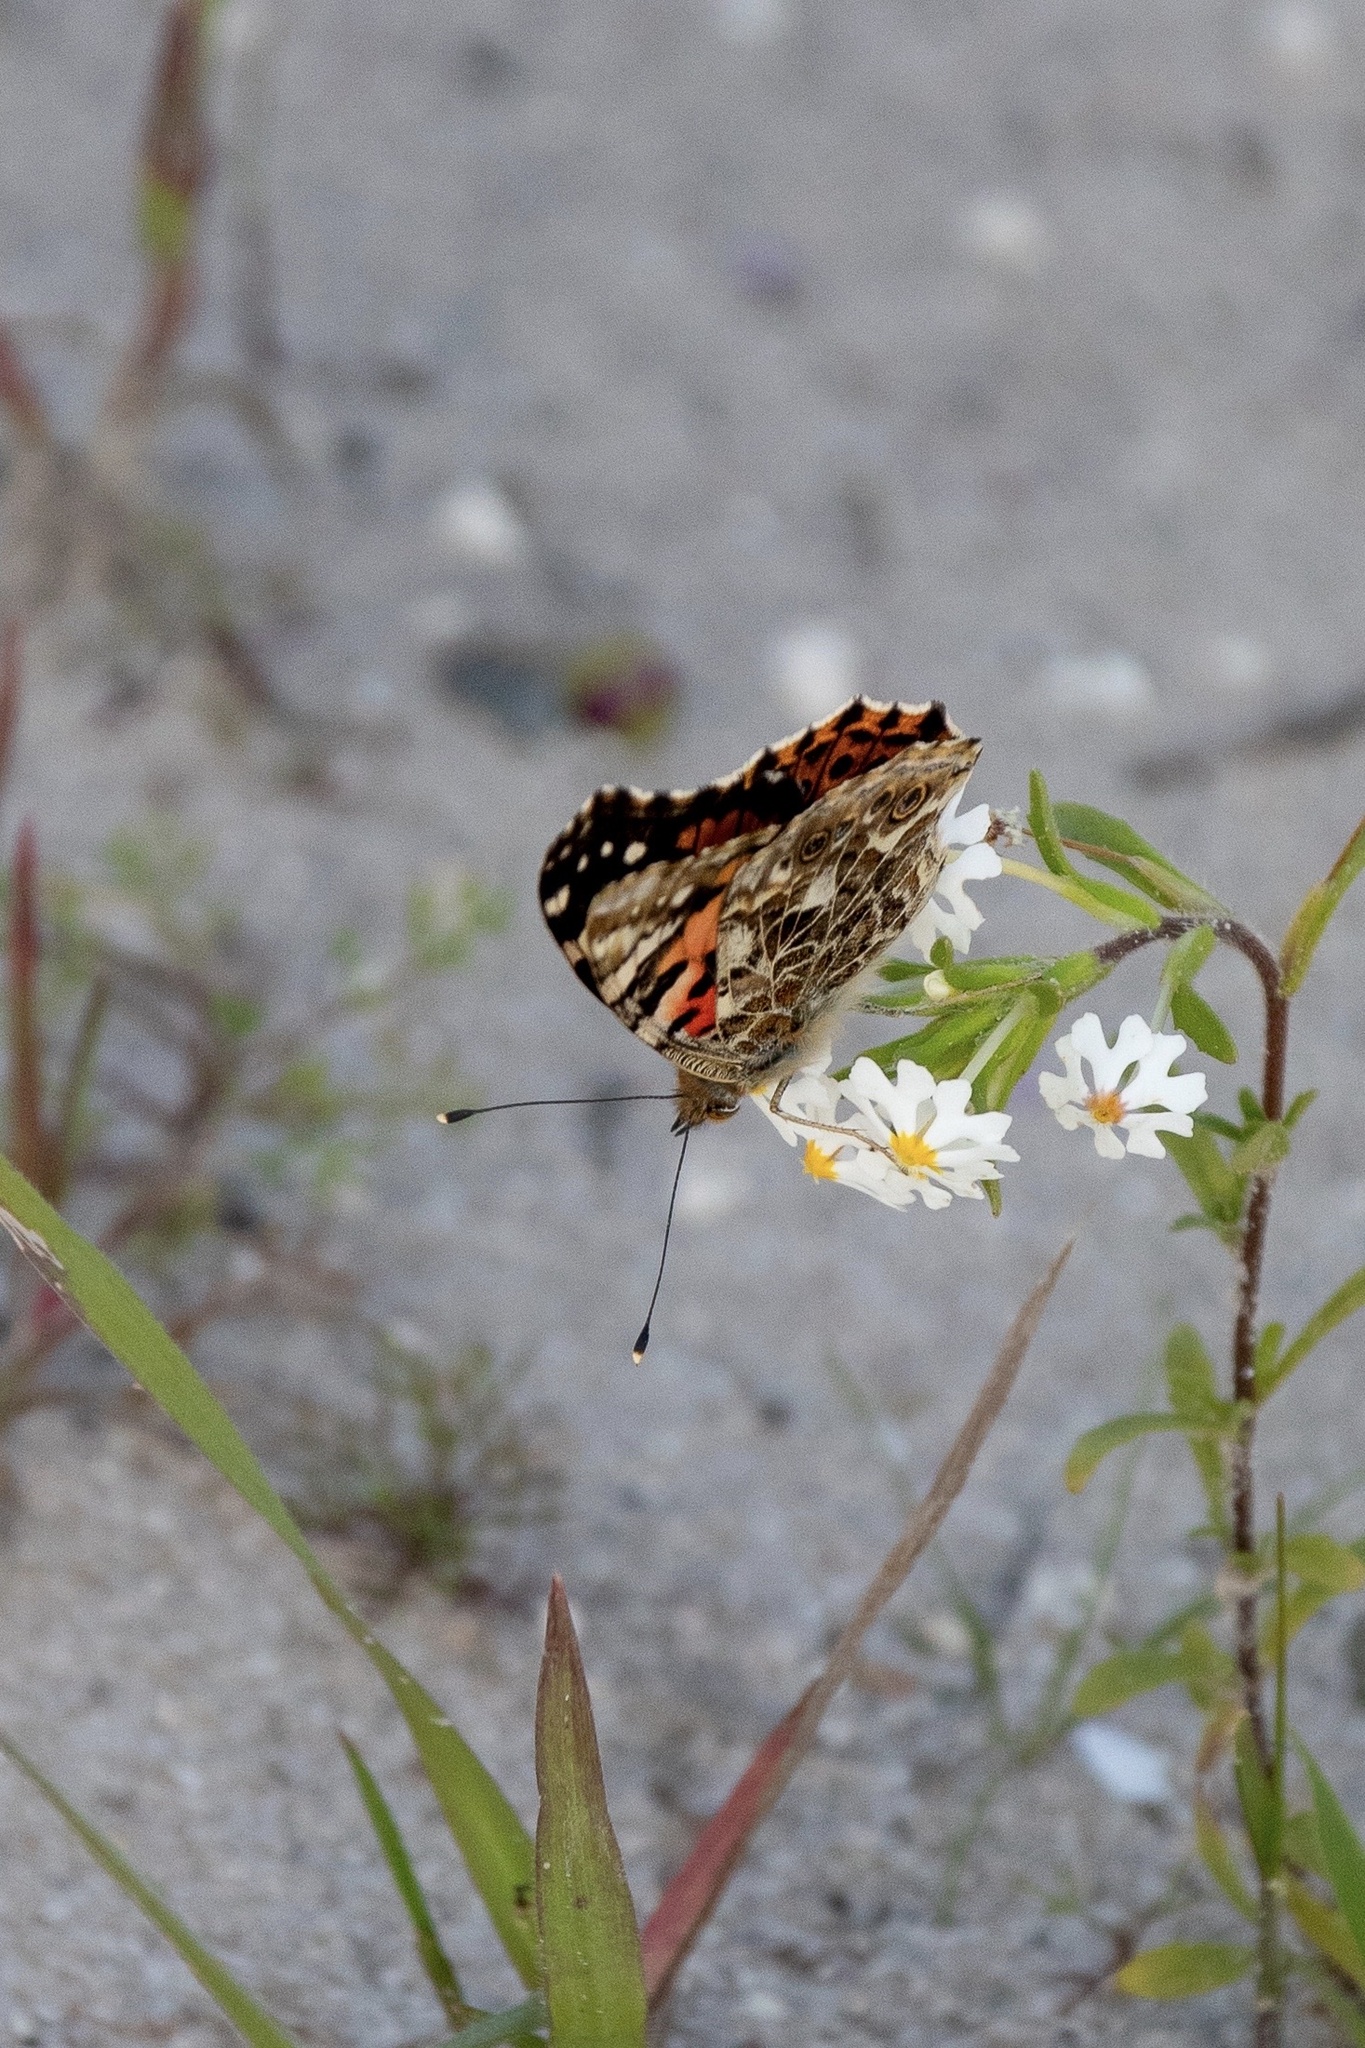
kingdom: Animalia
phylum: Arthropoda
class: Insecta
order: Lepidoptera
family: Nymphalidae
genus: Vanessa
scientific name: Vanessa cardui
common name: Painted lady
